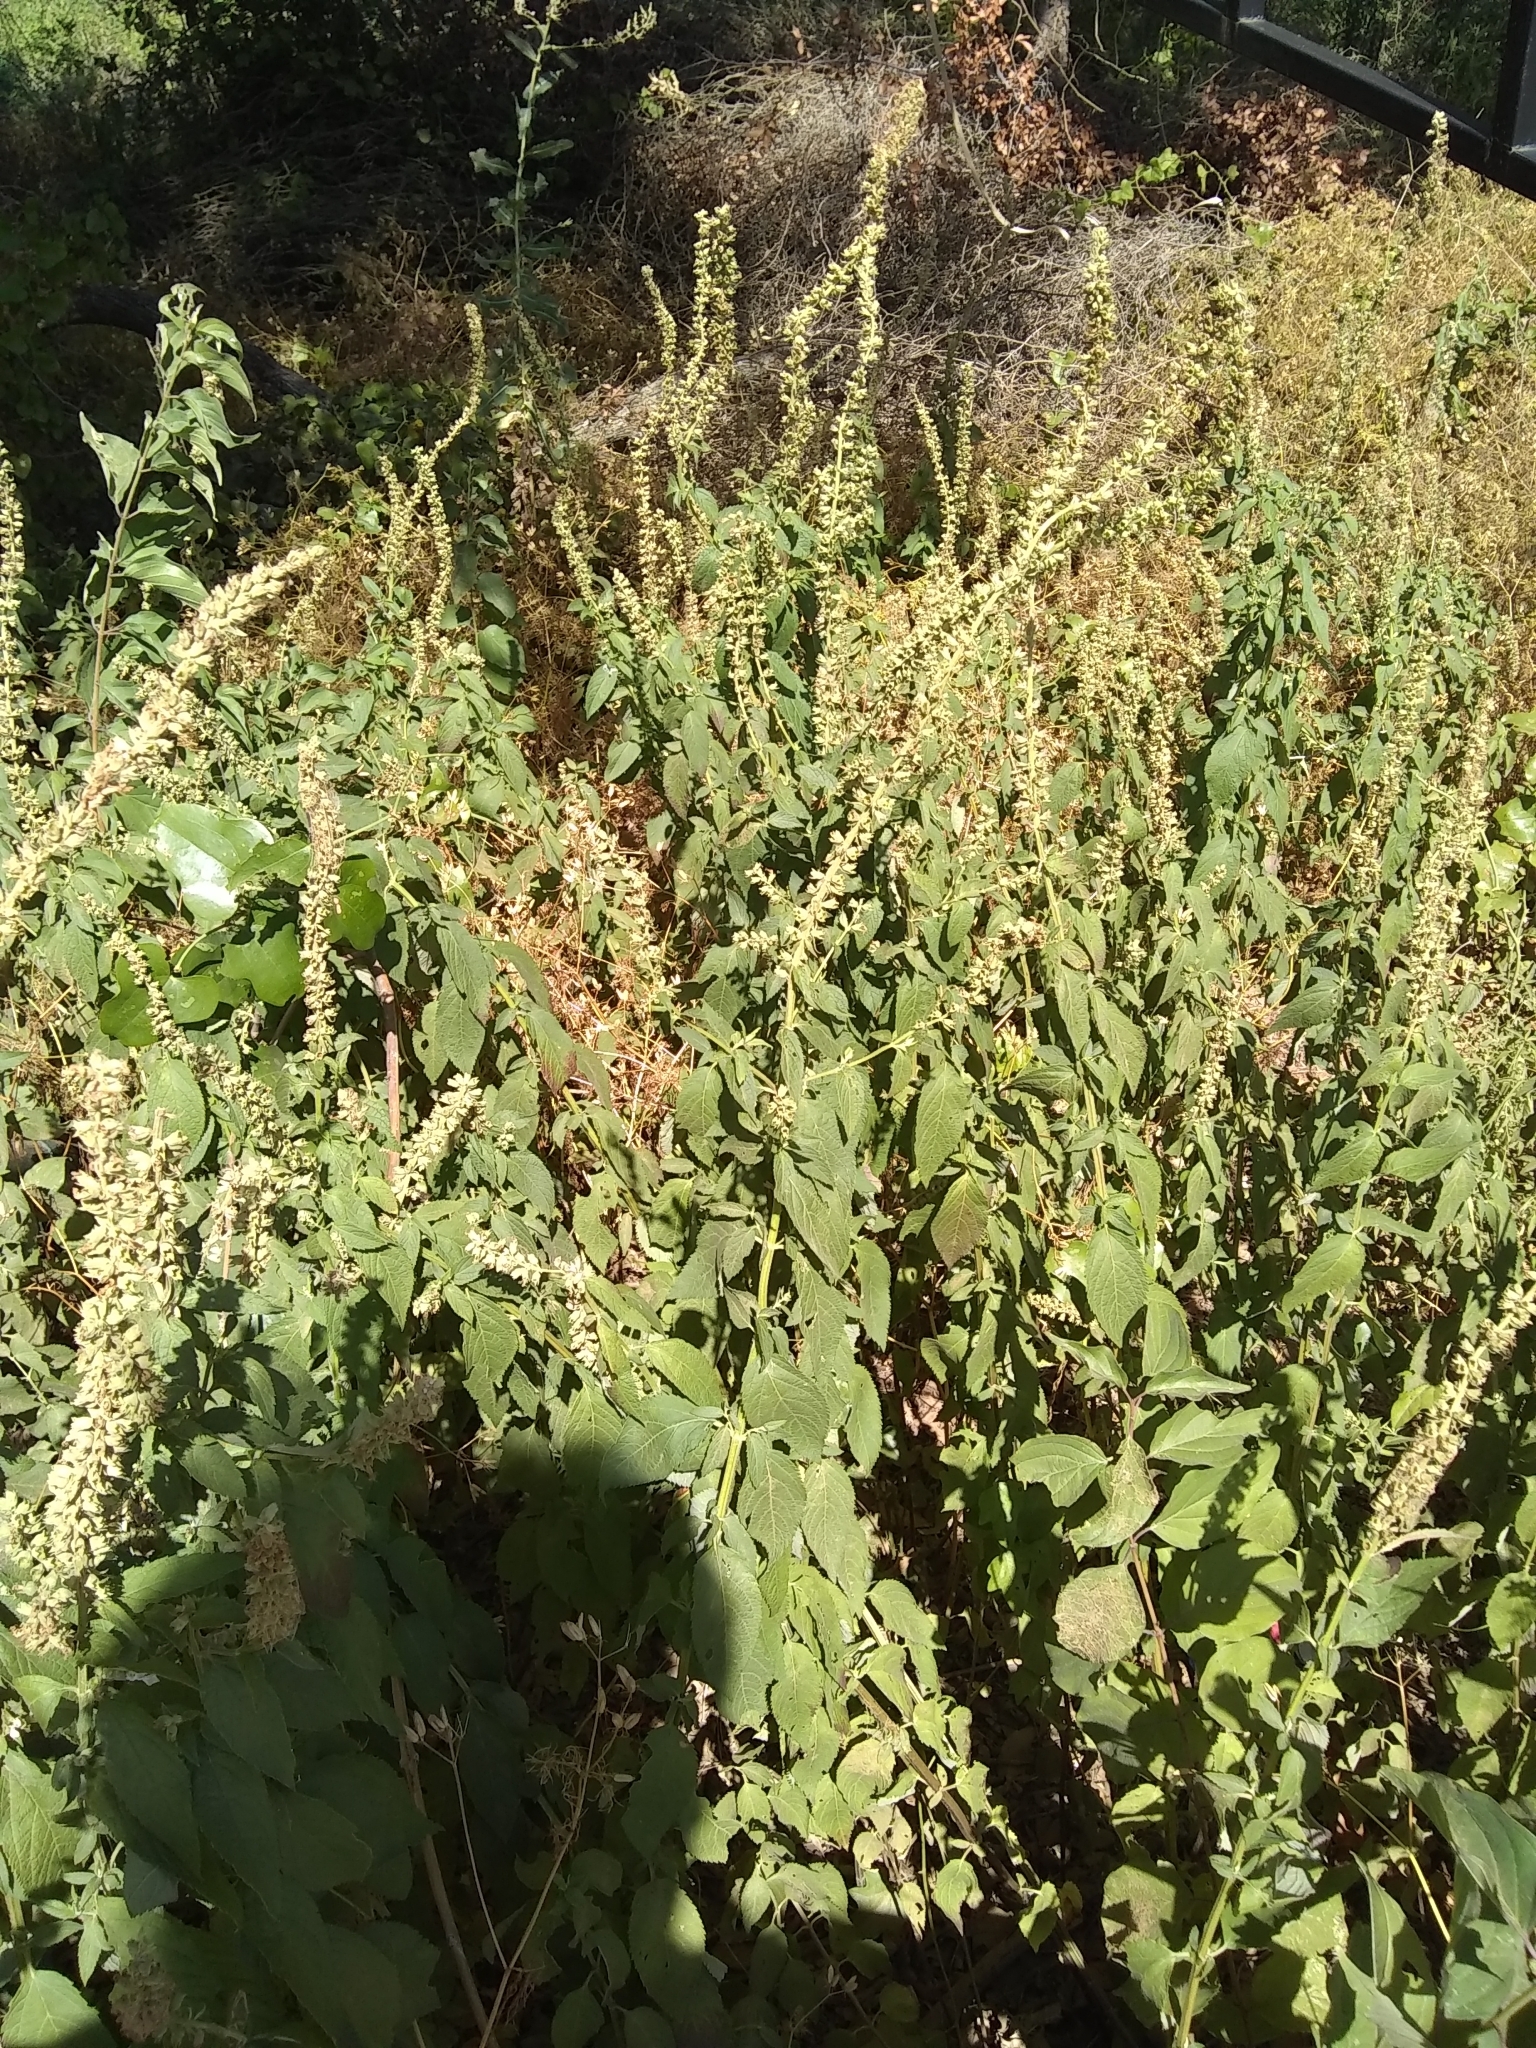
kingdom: Plantae
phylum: Tracheophyta
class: Magnoliopsida
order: Lamiales
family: Lamiaceae
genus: Teucrium
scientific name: Teucrium canadense
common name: American germander
